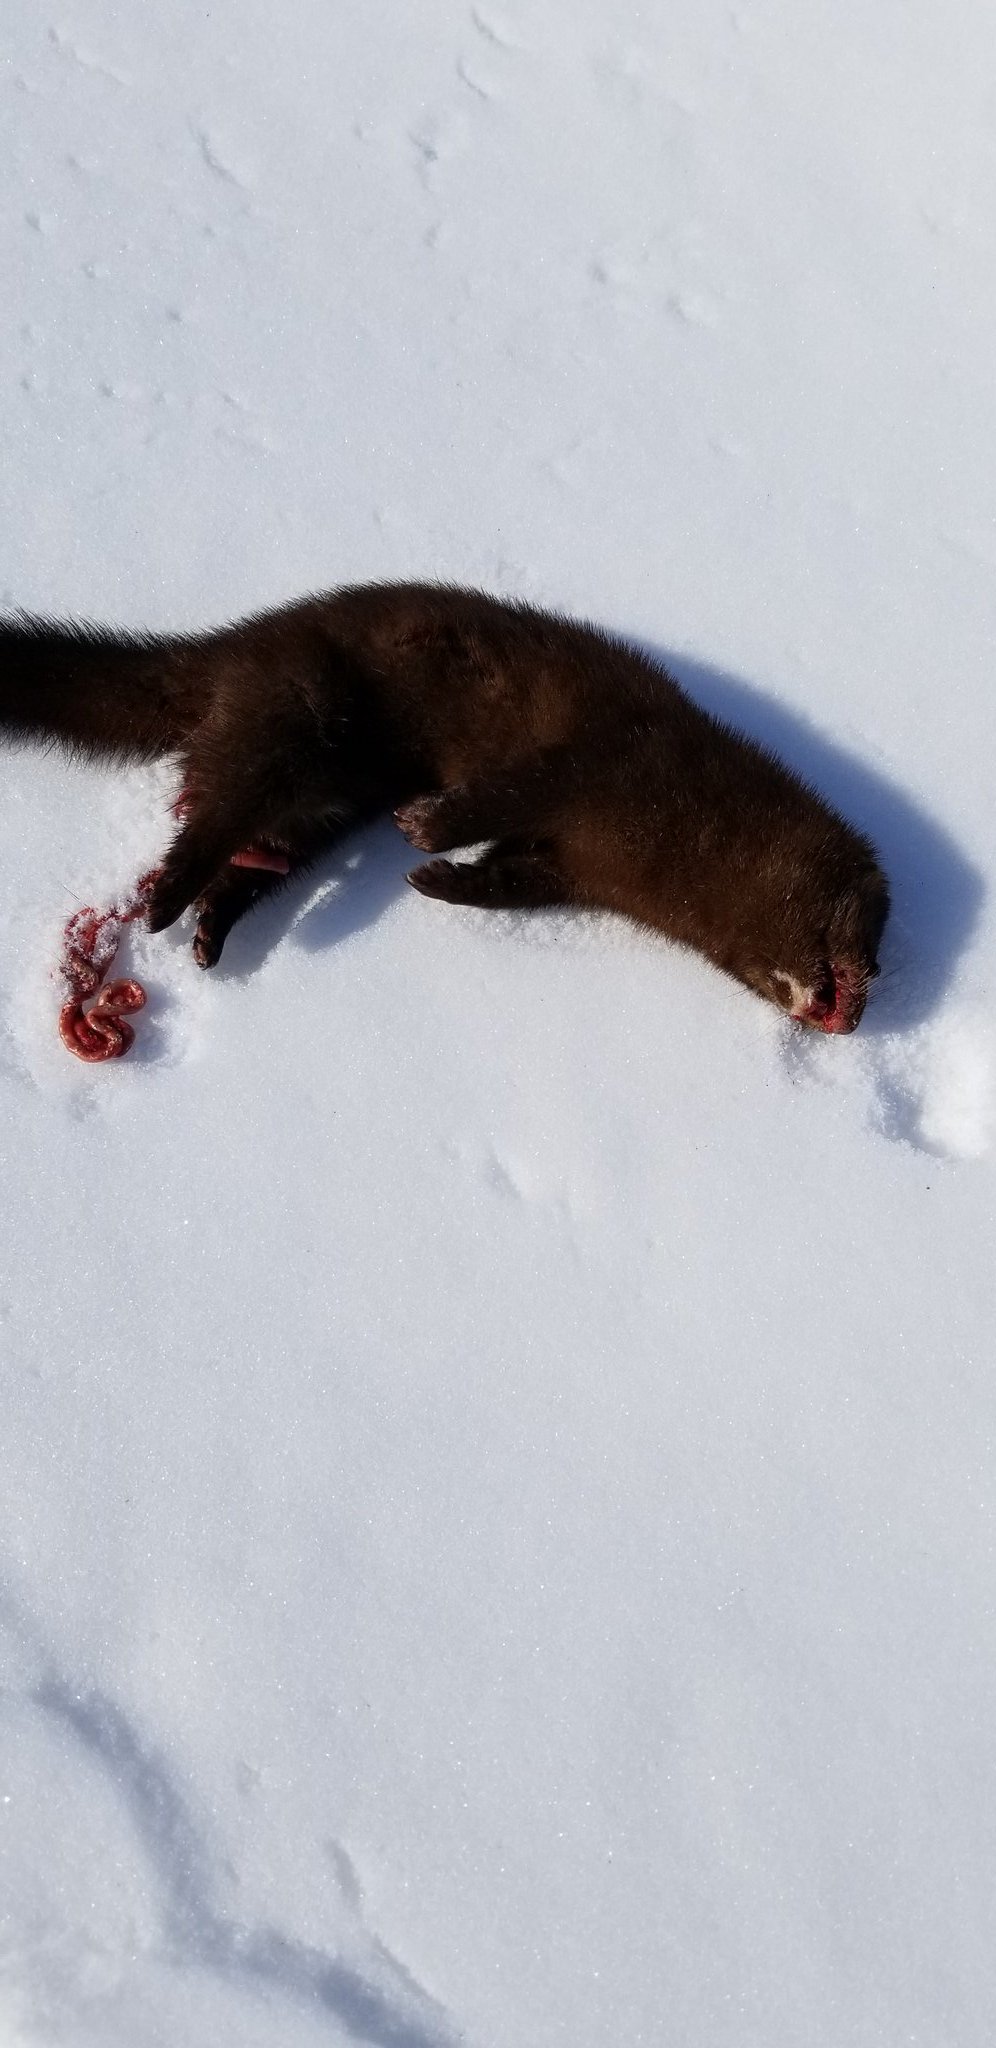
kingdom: Animalia
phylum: Chordata
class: Mammalia
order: Carnivora
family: Mustelidae
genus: Mustela
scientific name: Mustela
